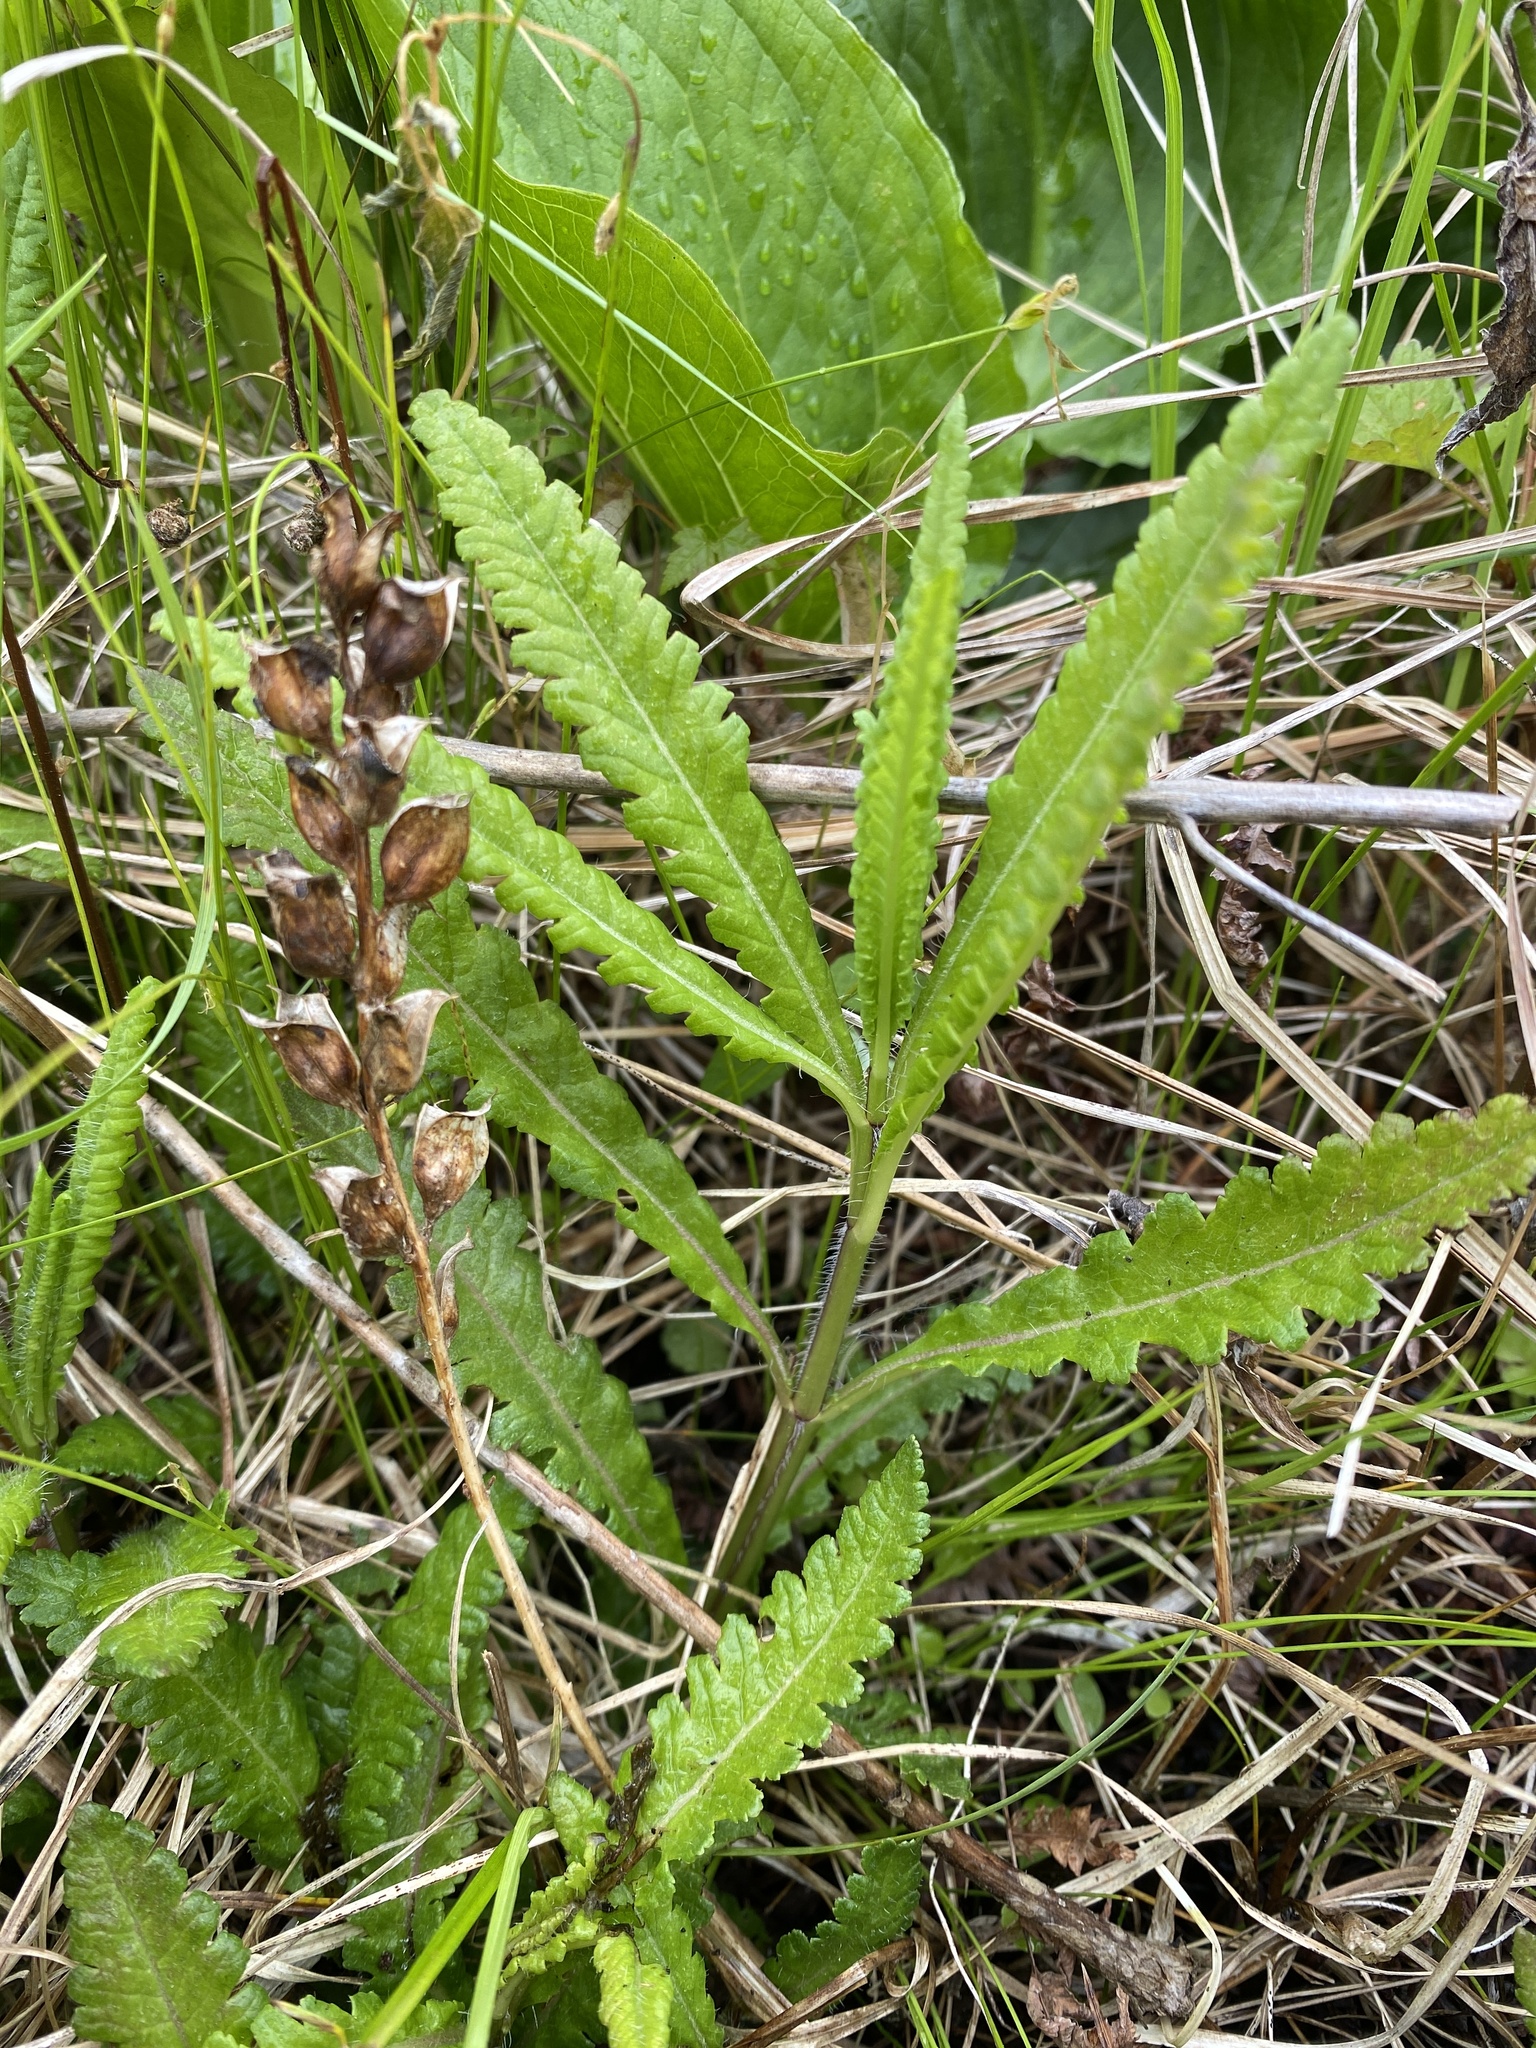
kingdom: Plantae
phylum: Tracheophyta
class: Magnoliopsida
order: Lamiales
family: Orobanchaceae
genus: Pedicularis
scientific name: Pedicularis lanceolata
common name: Swamp lousewort
